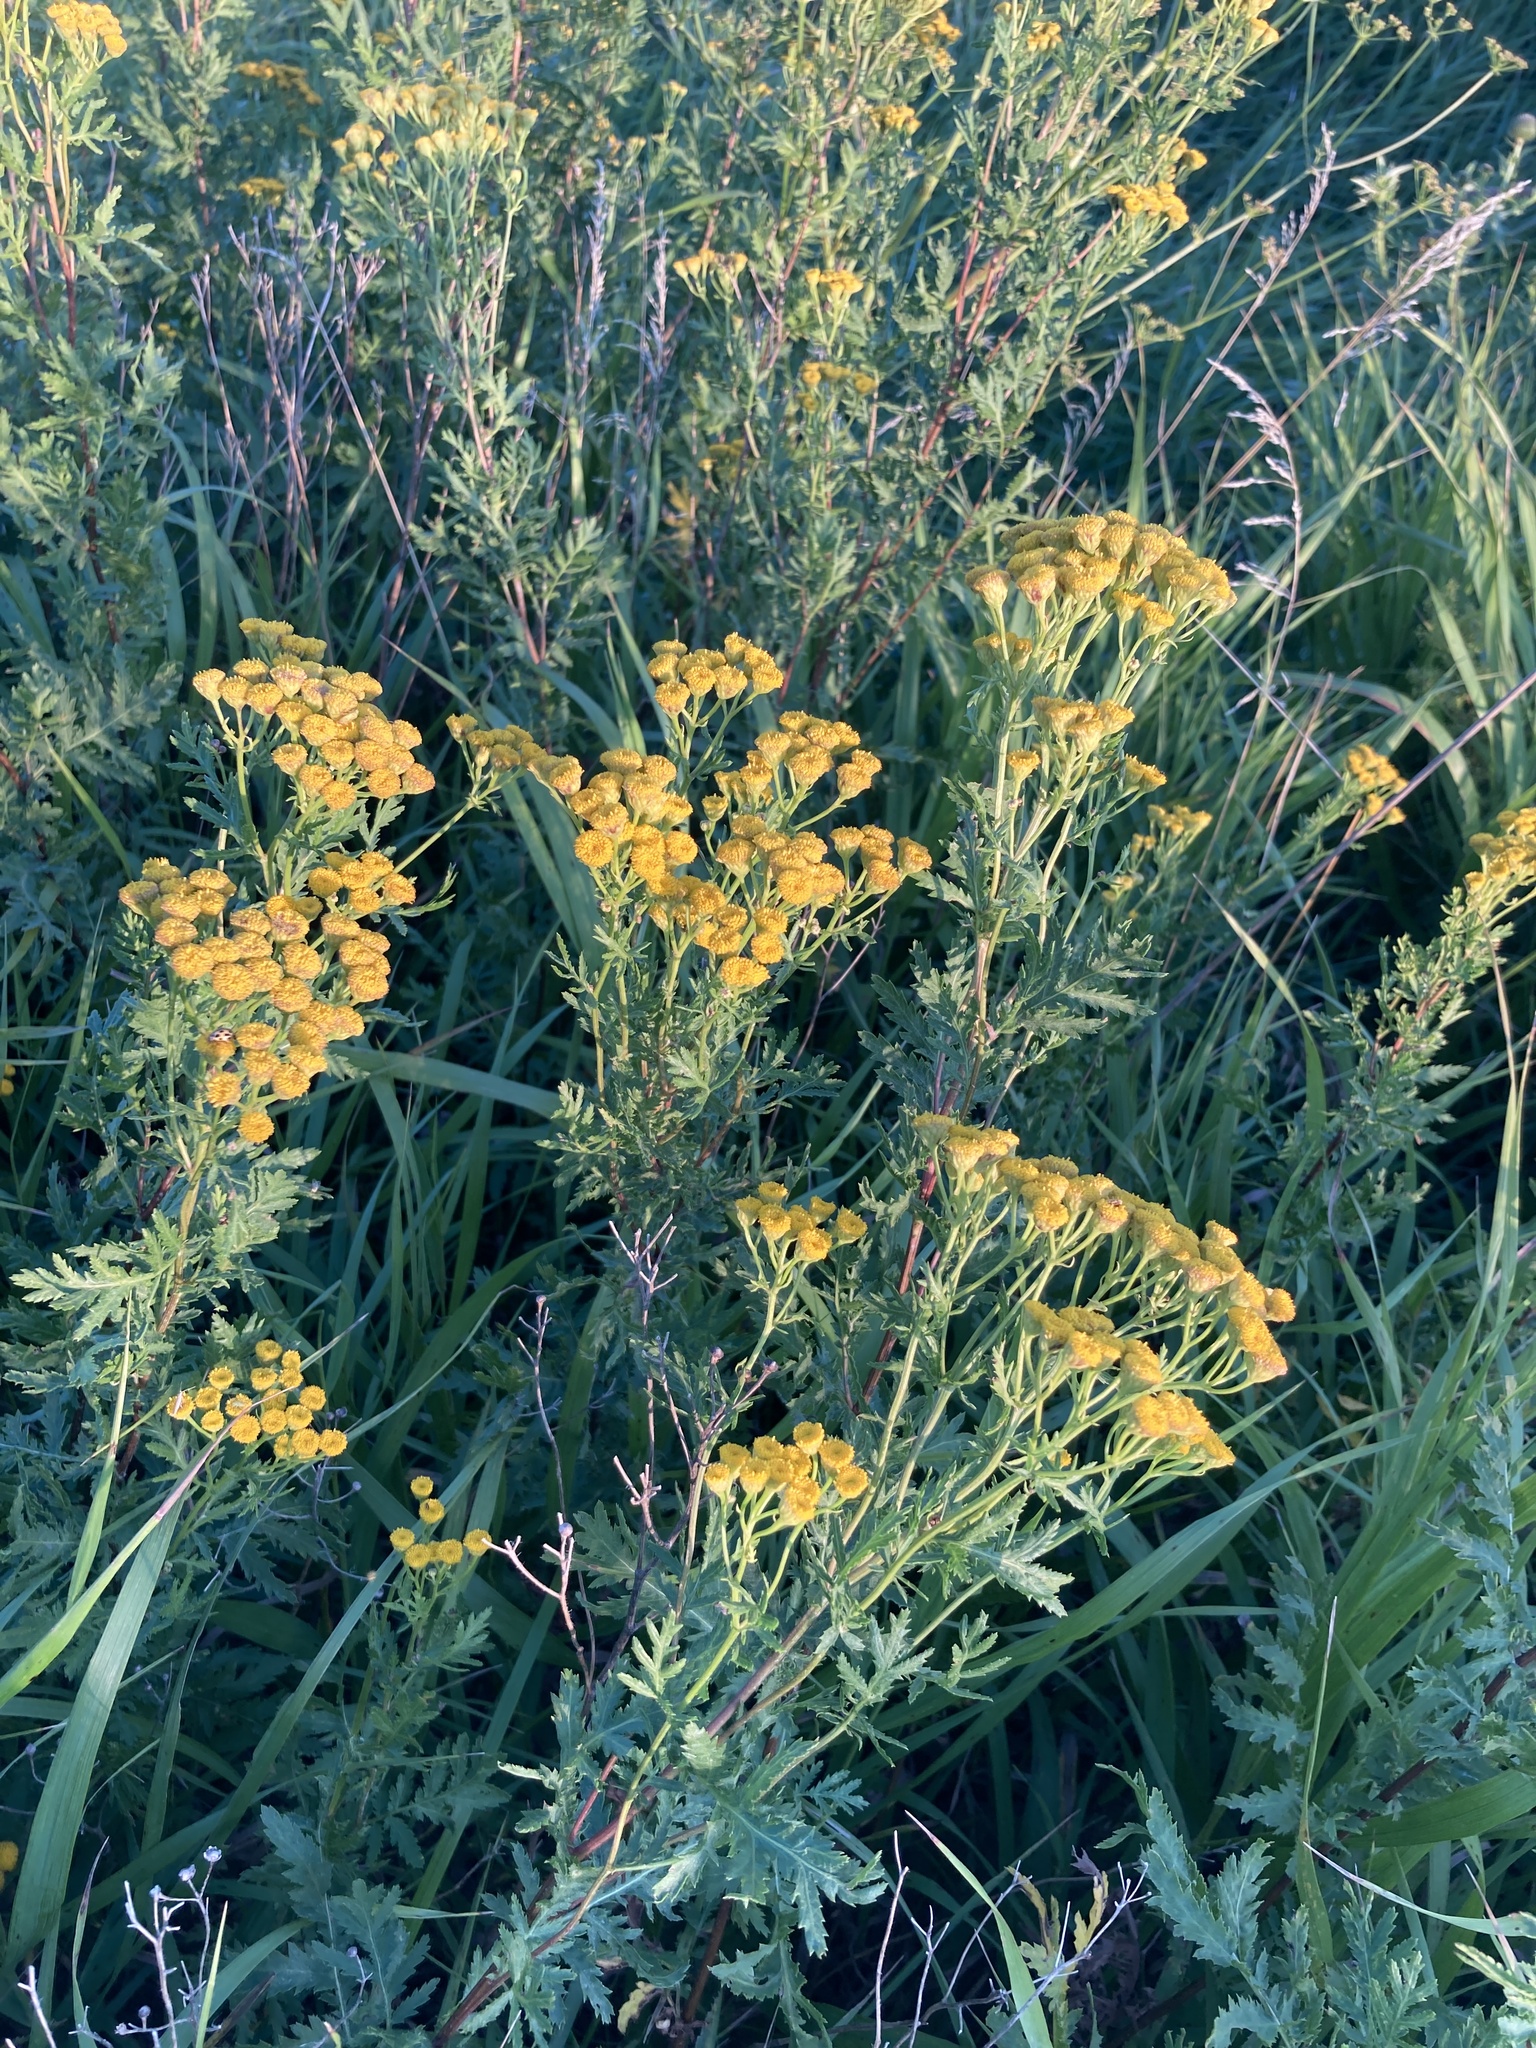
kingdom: Plantae
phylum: Tracheophyta
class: Magnoliopsida
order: Asterales
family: Asteraceae
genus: Tanacetum
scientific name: Tanacetum vulgare
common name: Common tansy
